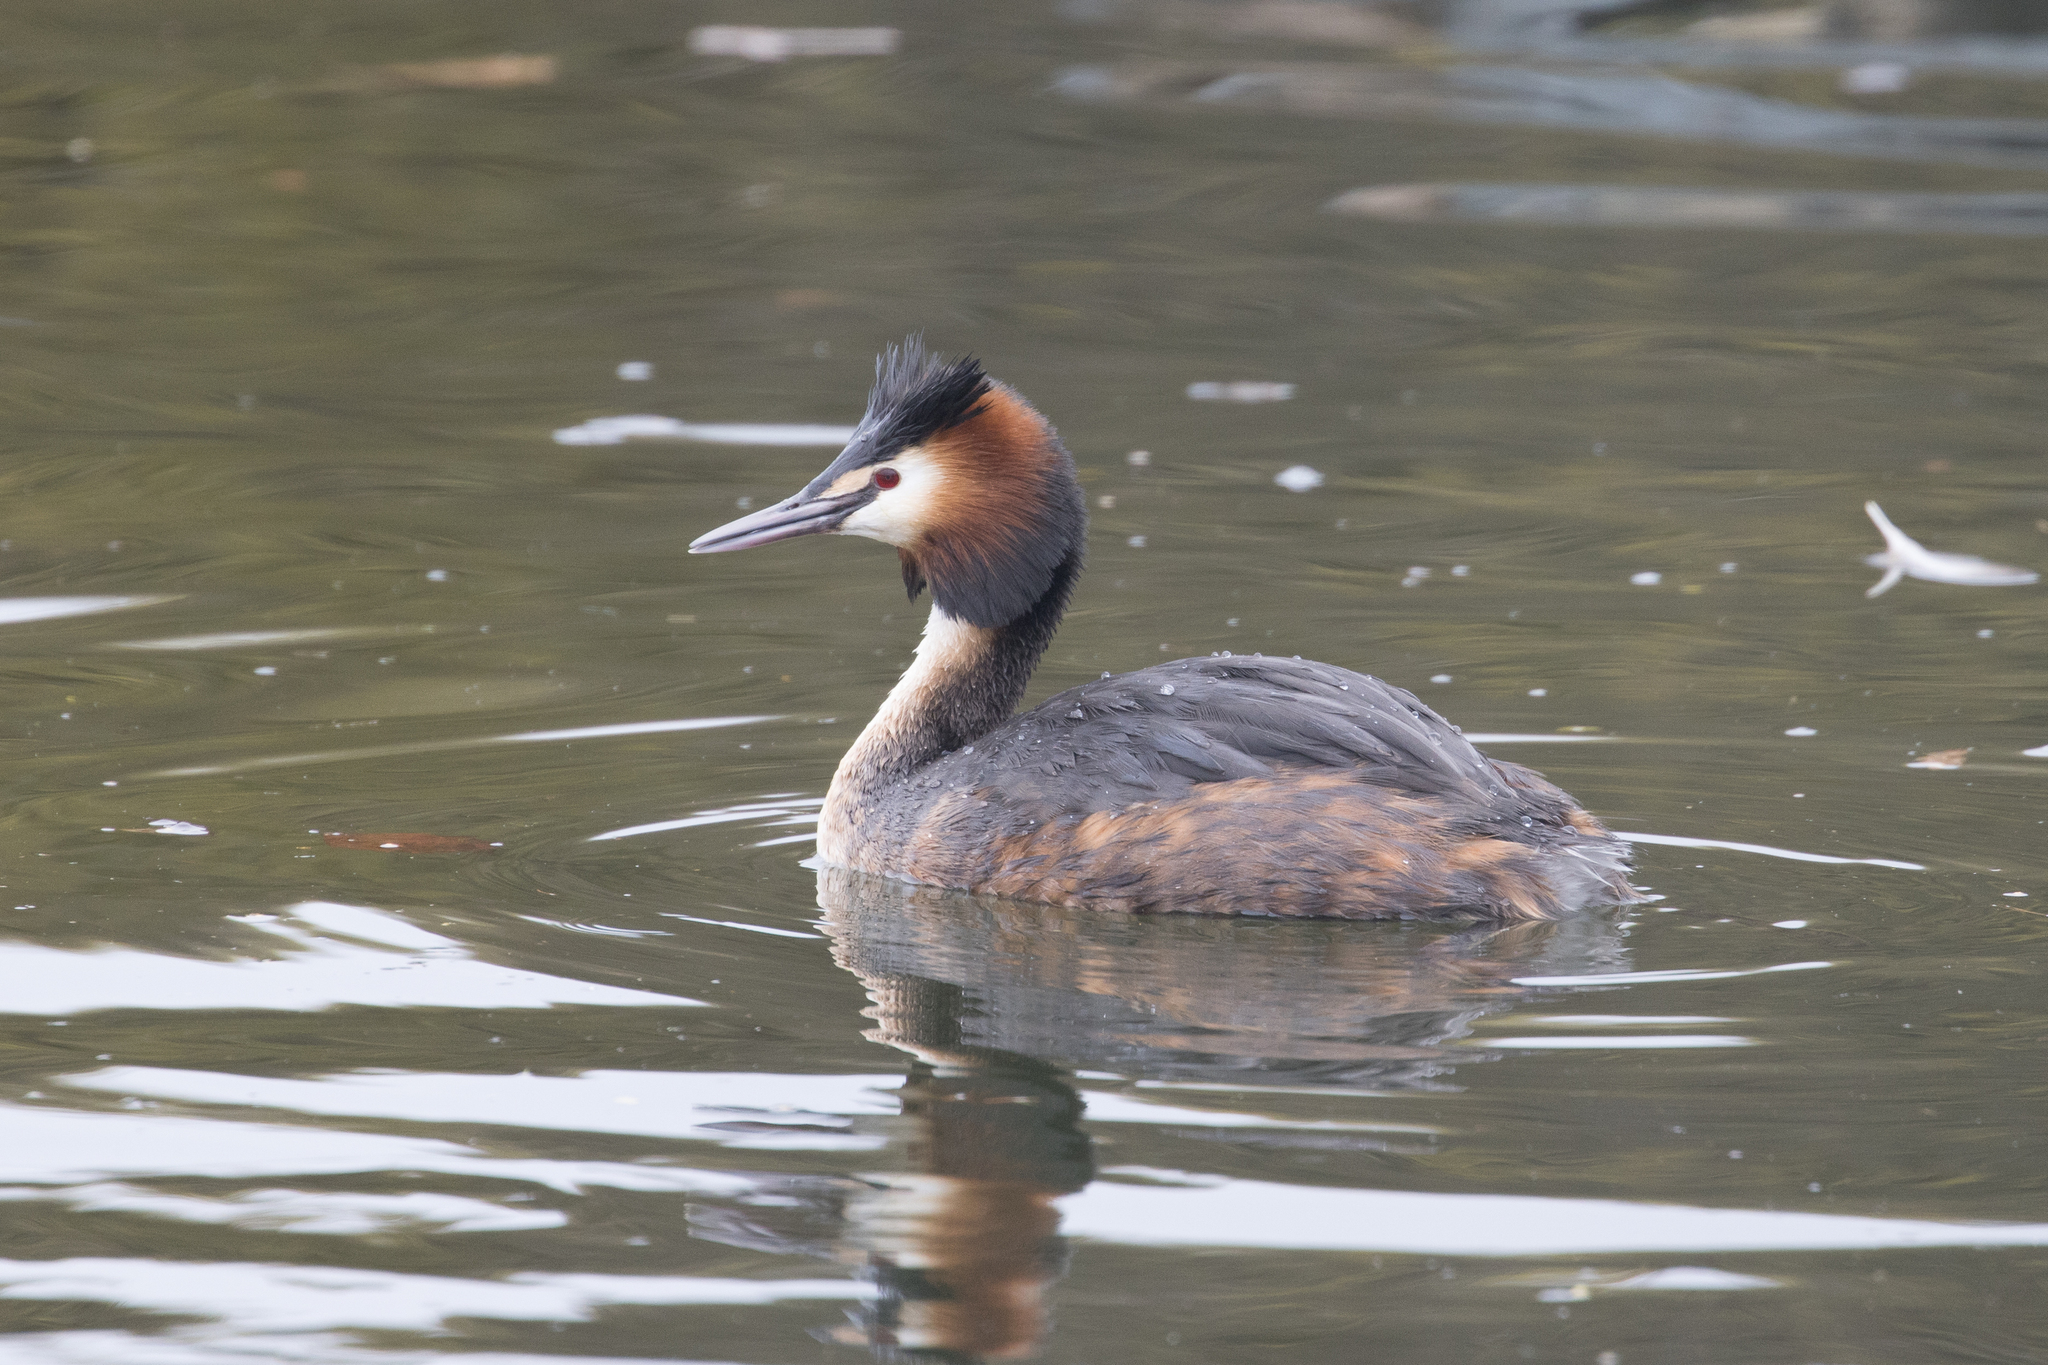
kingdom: Animalia
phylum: Chordata
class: Aves
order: Podicipediformes
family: Podicipedidae
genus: Podiceps
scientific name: Podiceps cristatus
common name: Great crested grebe
